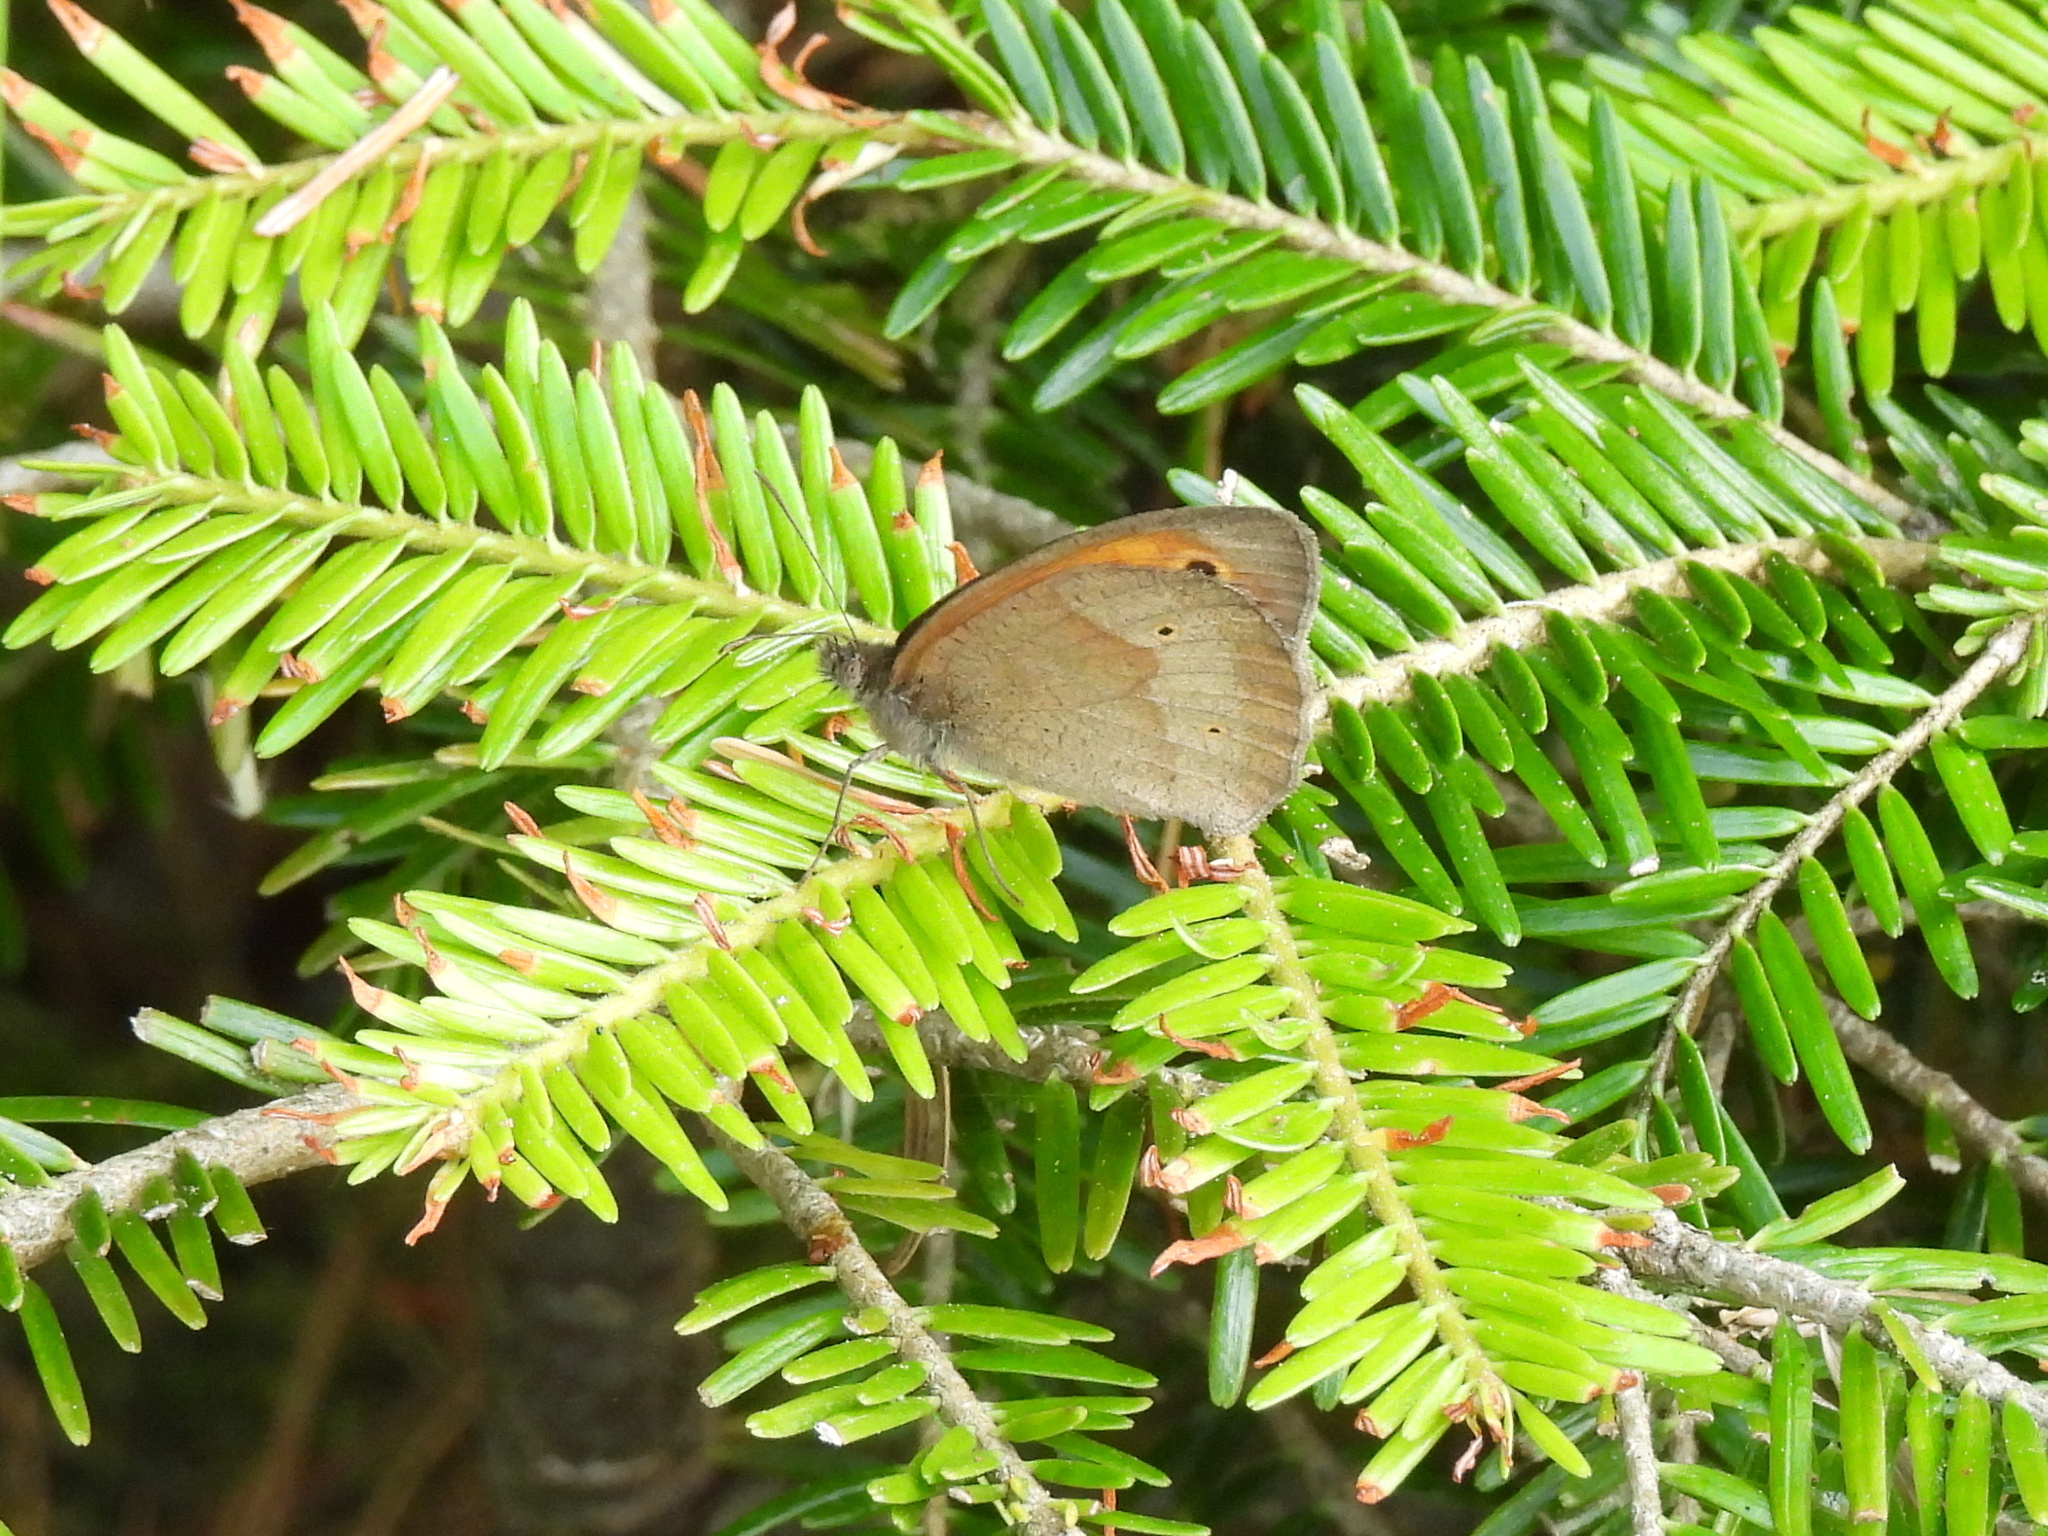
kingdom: Animalia
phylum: Arthropoda
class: Insecta
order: Lepidoptera
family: Nymphalidae
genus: Maniola
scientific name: Maniola jurtina
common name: Meadow brown
